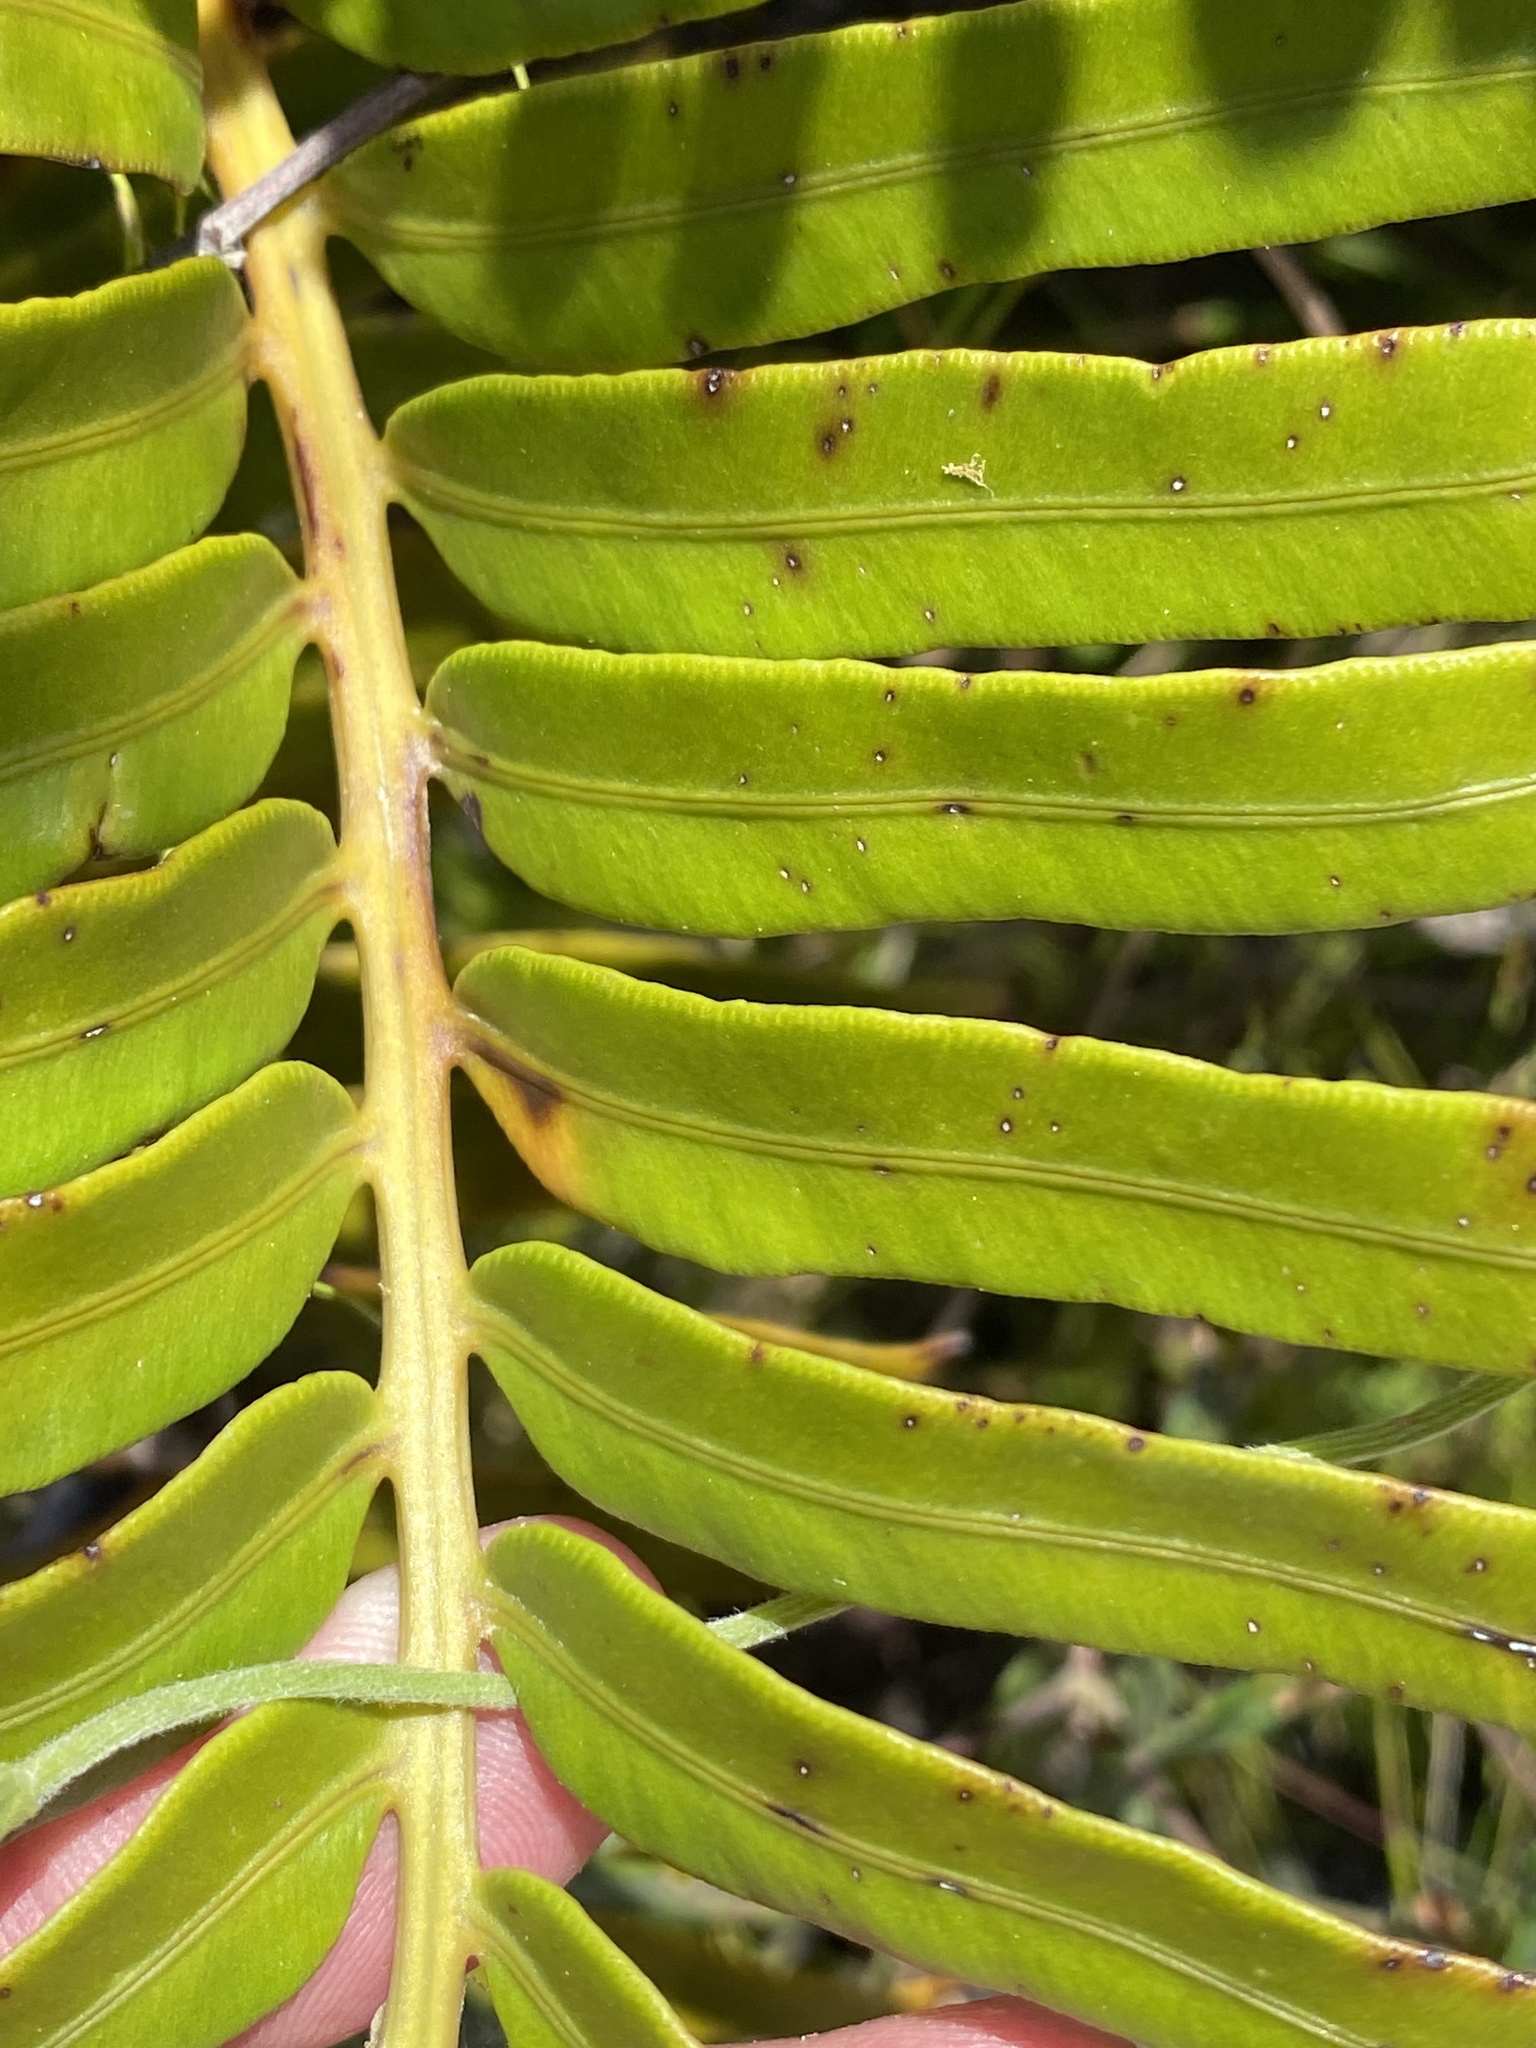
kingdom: Plantae
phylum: Tracheophyta
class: Polypodiopsida
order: Polypodiales
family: Blechnaceae
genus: Lomariocycas
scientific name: Lomariocycas tabularis
